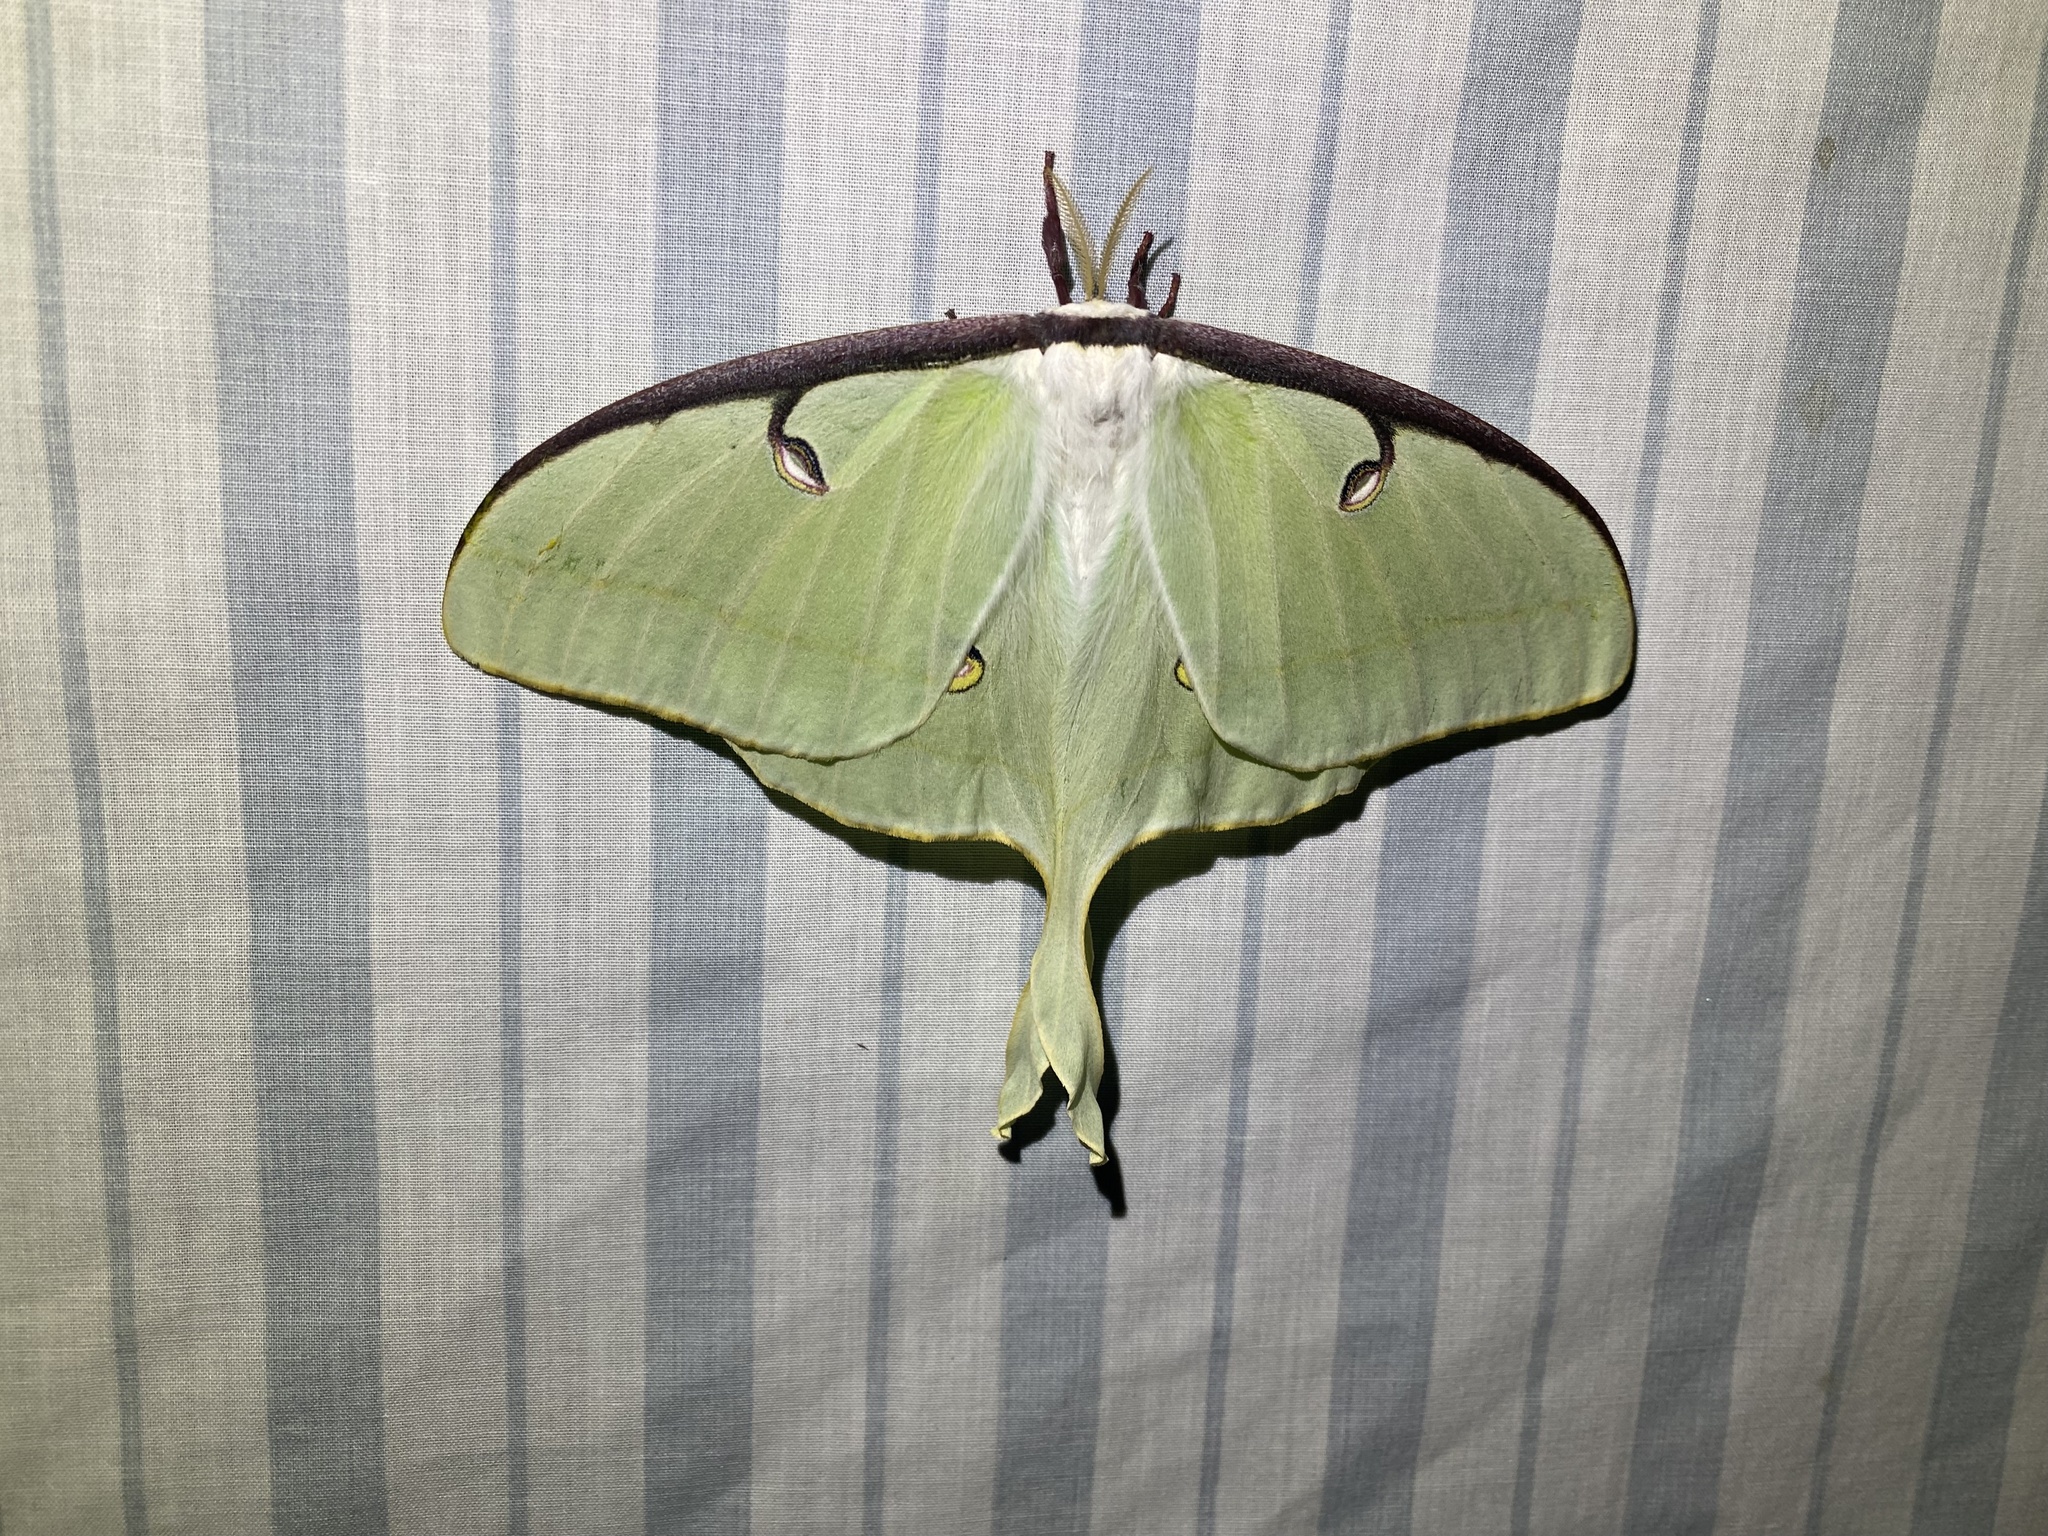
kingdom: Animalia
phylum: Arthropoda
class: Insecta
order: Lepidoptera
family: Saturniidae
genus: Actias
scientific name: Actias luna
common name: Luna moth
